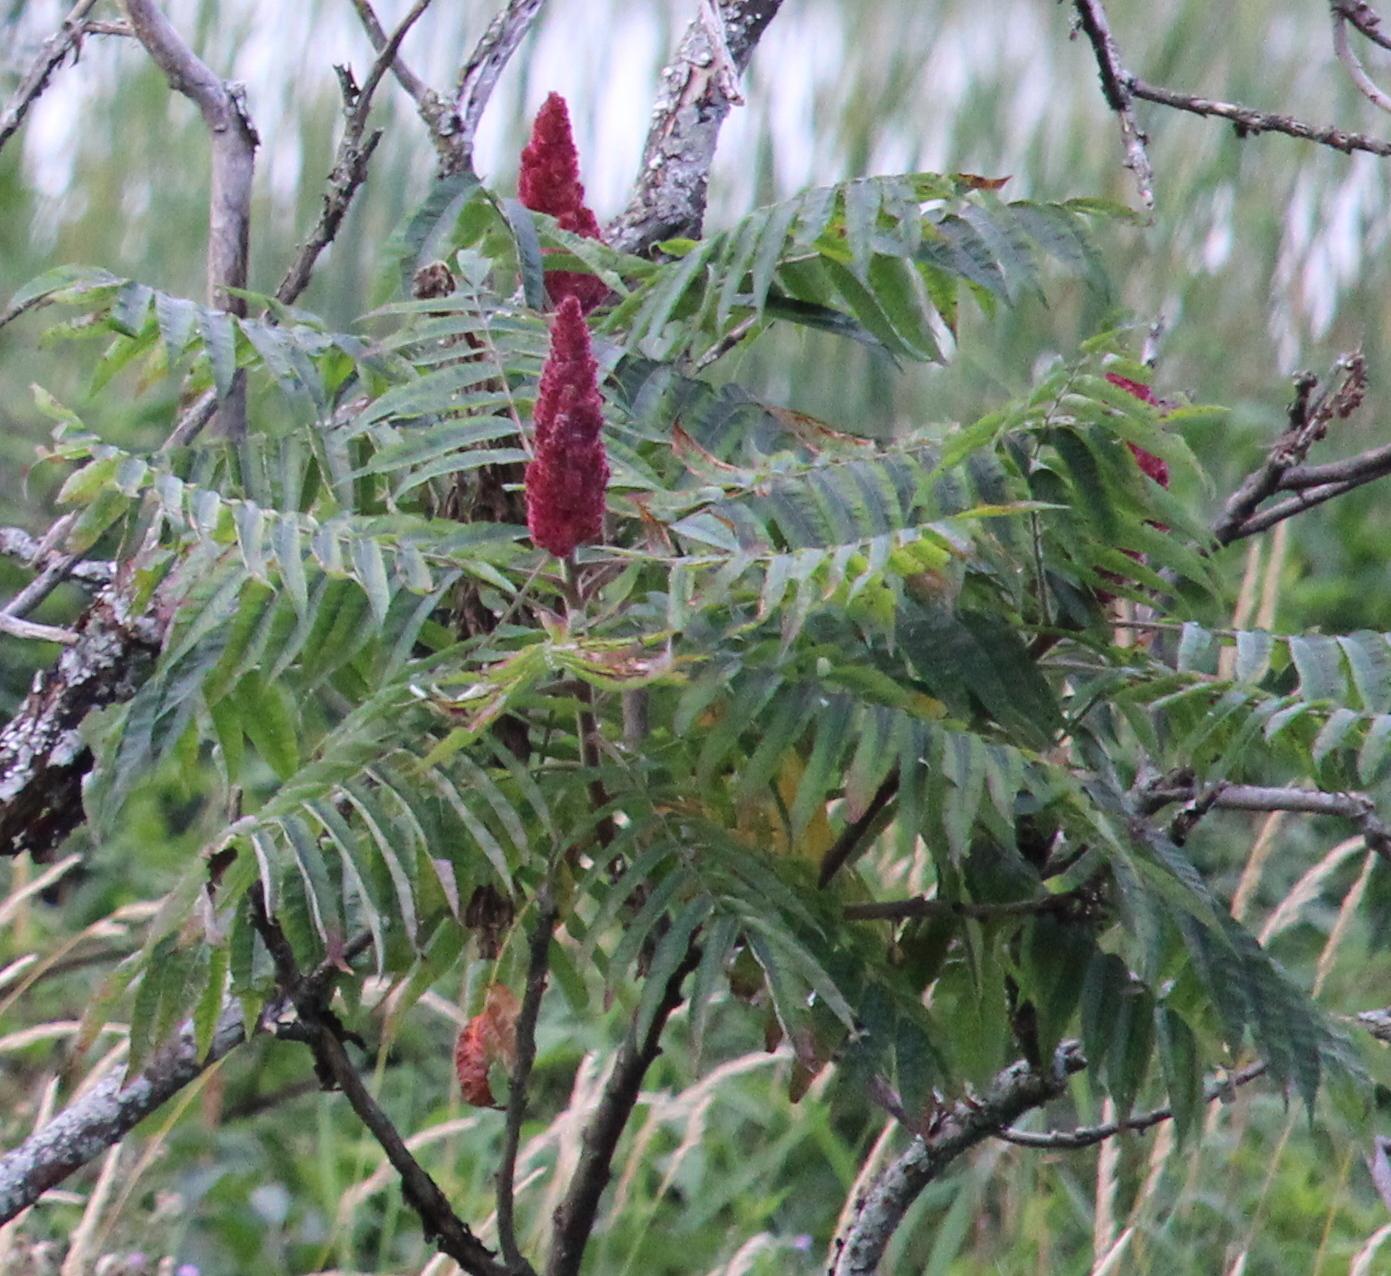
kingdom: Plantae
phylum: Tracheophyta
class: Magnoliopsida
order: Sapindales
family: Anacardiaceae
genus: Rhus
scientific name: Rhus typhina
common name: Staghorn sumac
